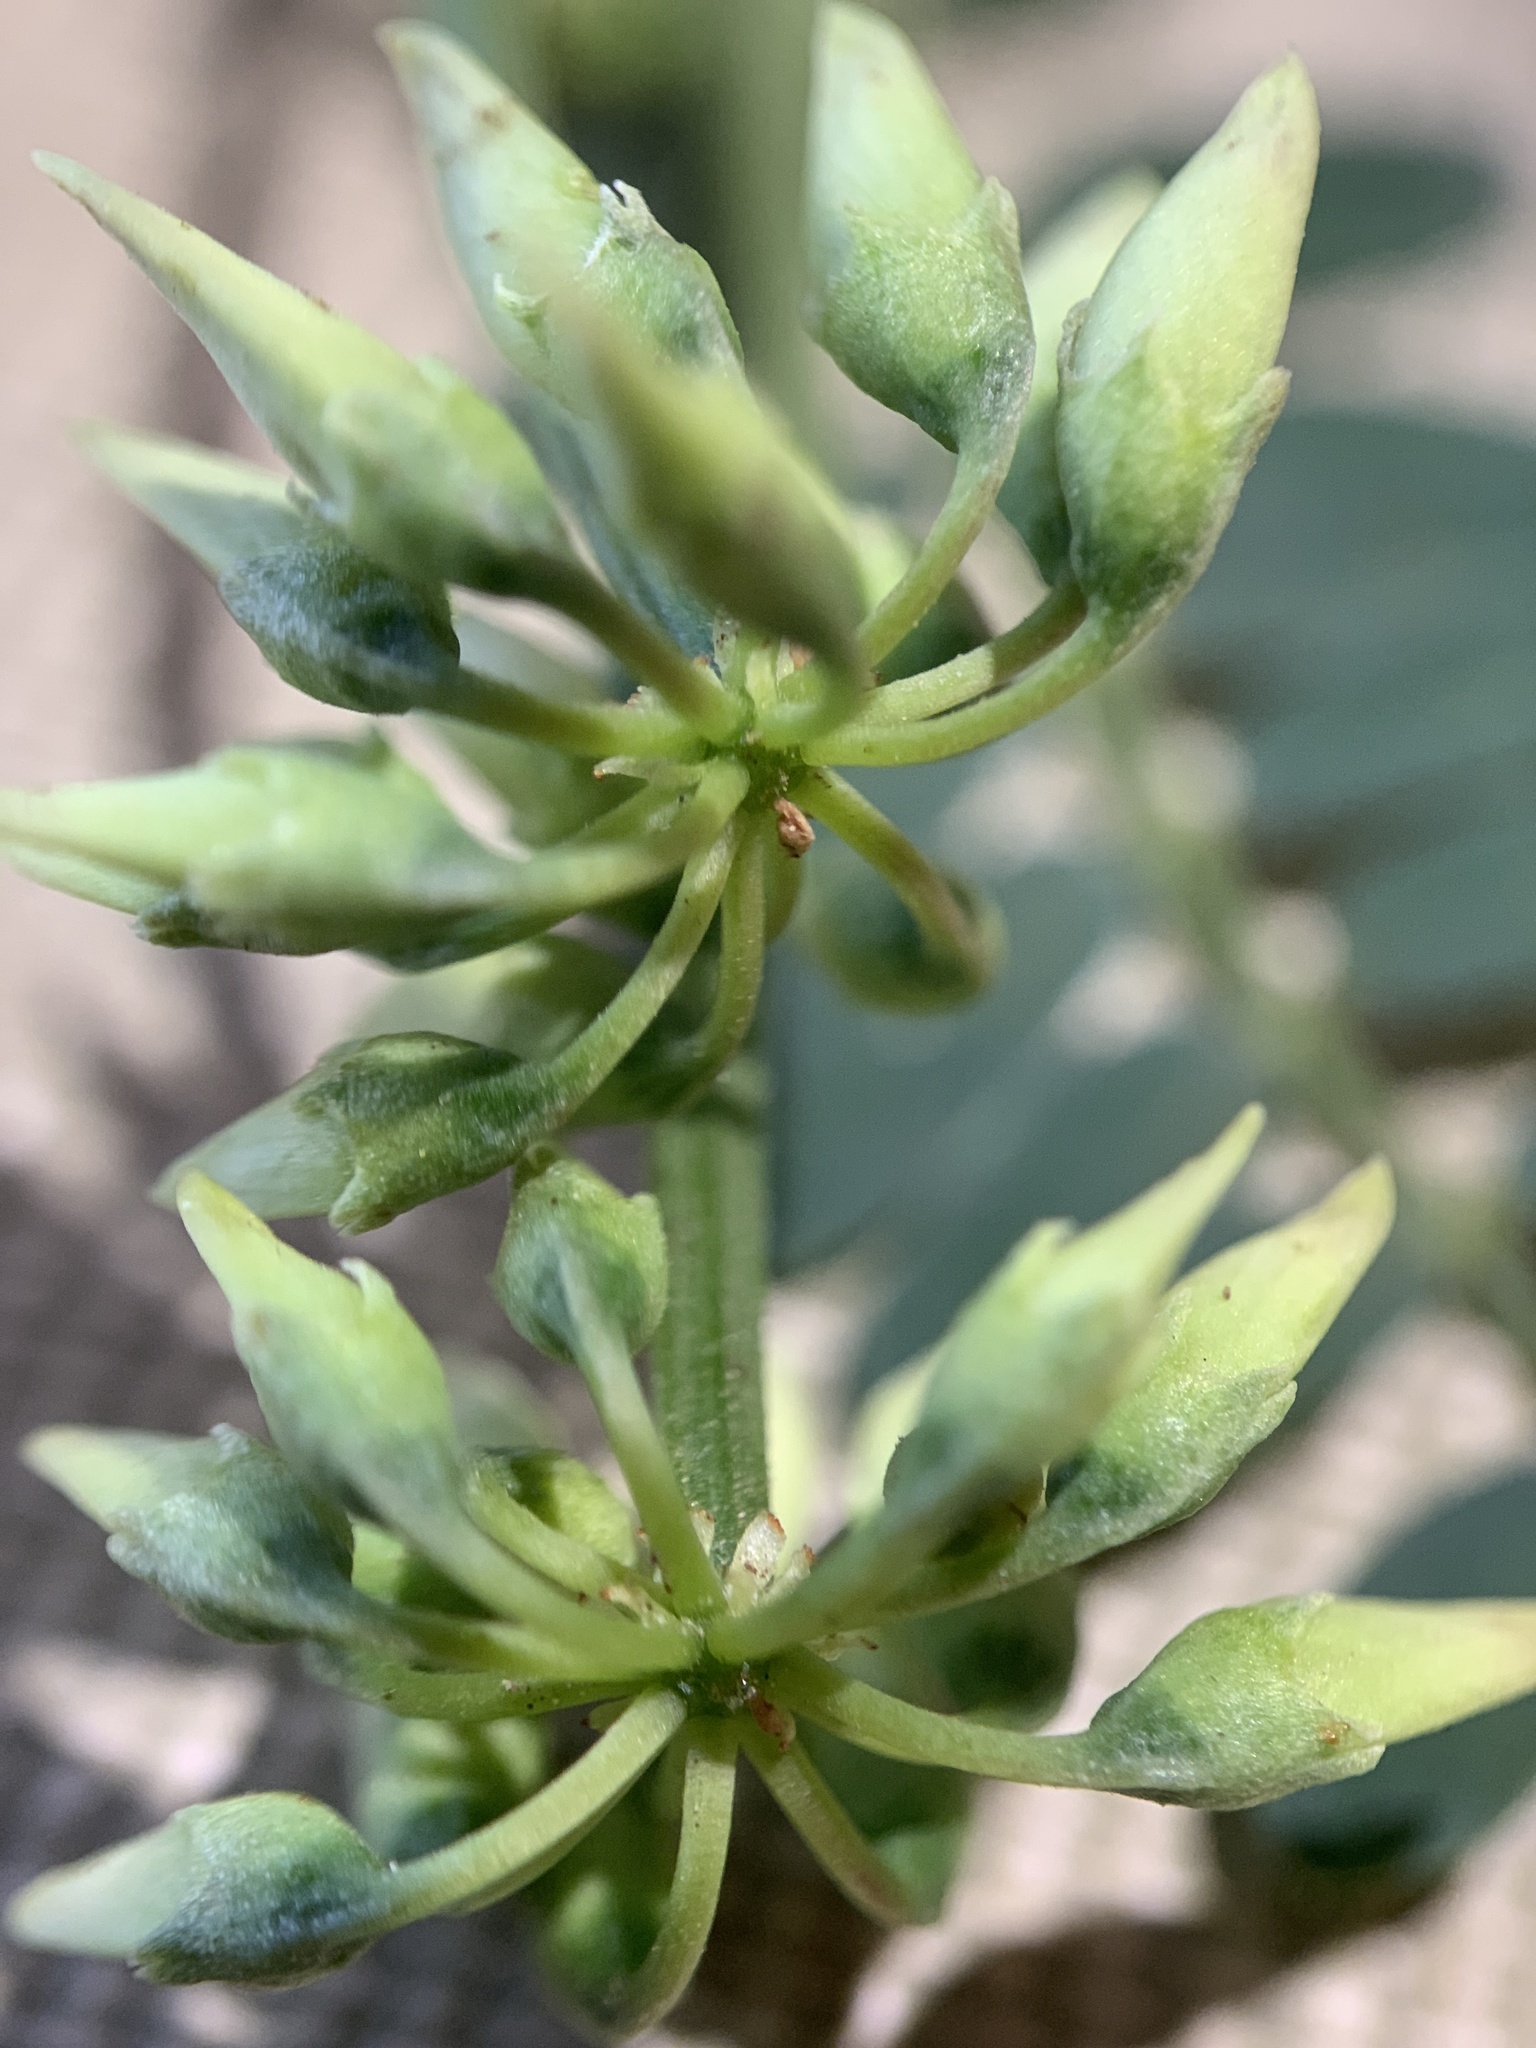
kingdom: Plantae
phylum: Tracheophyta
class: Magnoliopsida
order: Fabales
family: Fabaceae
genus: Coronilla
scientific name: Coronilla varia
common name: Crownvetch
